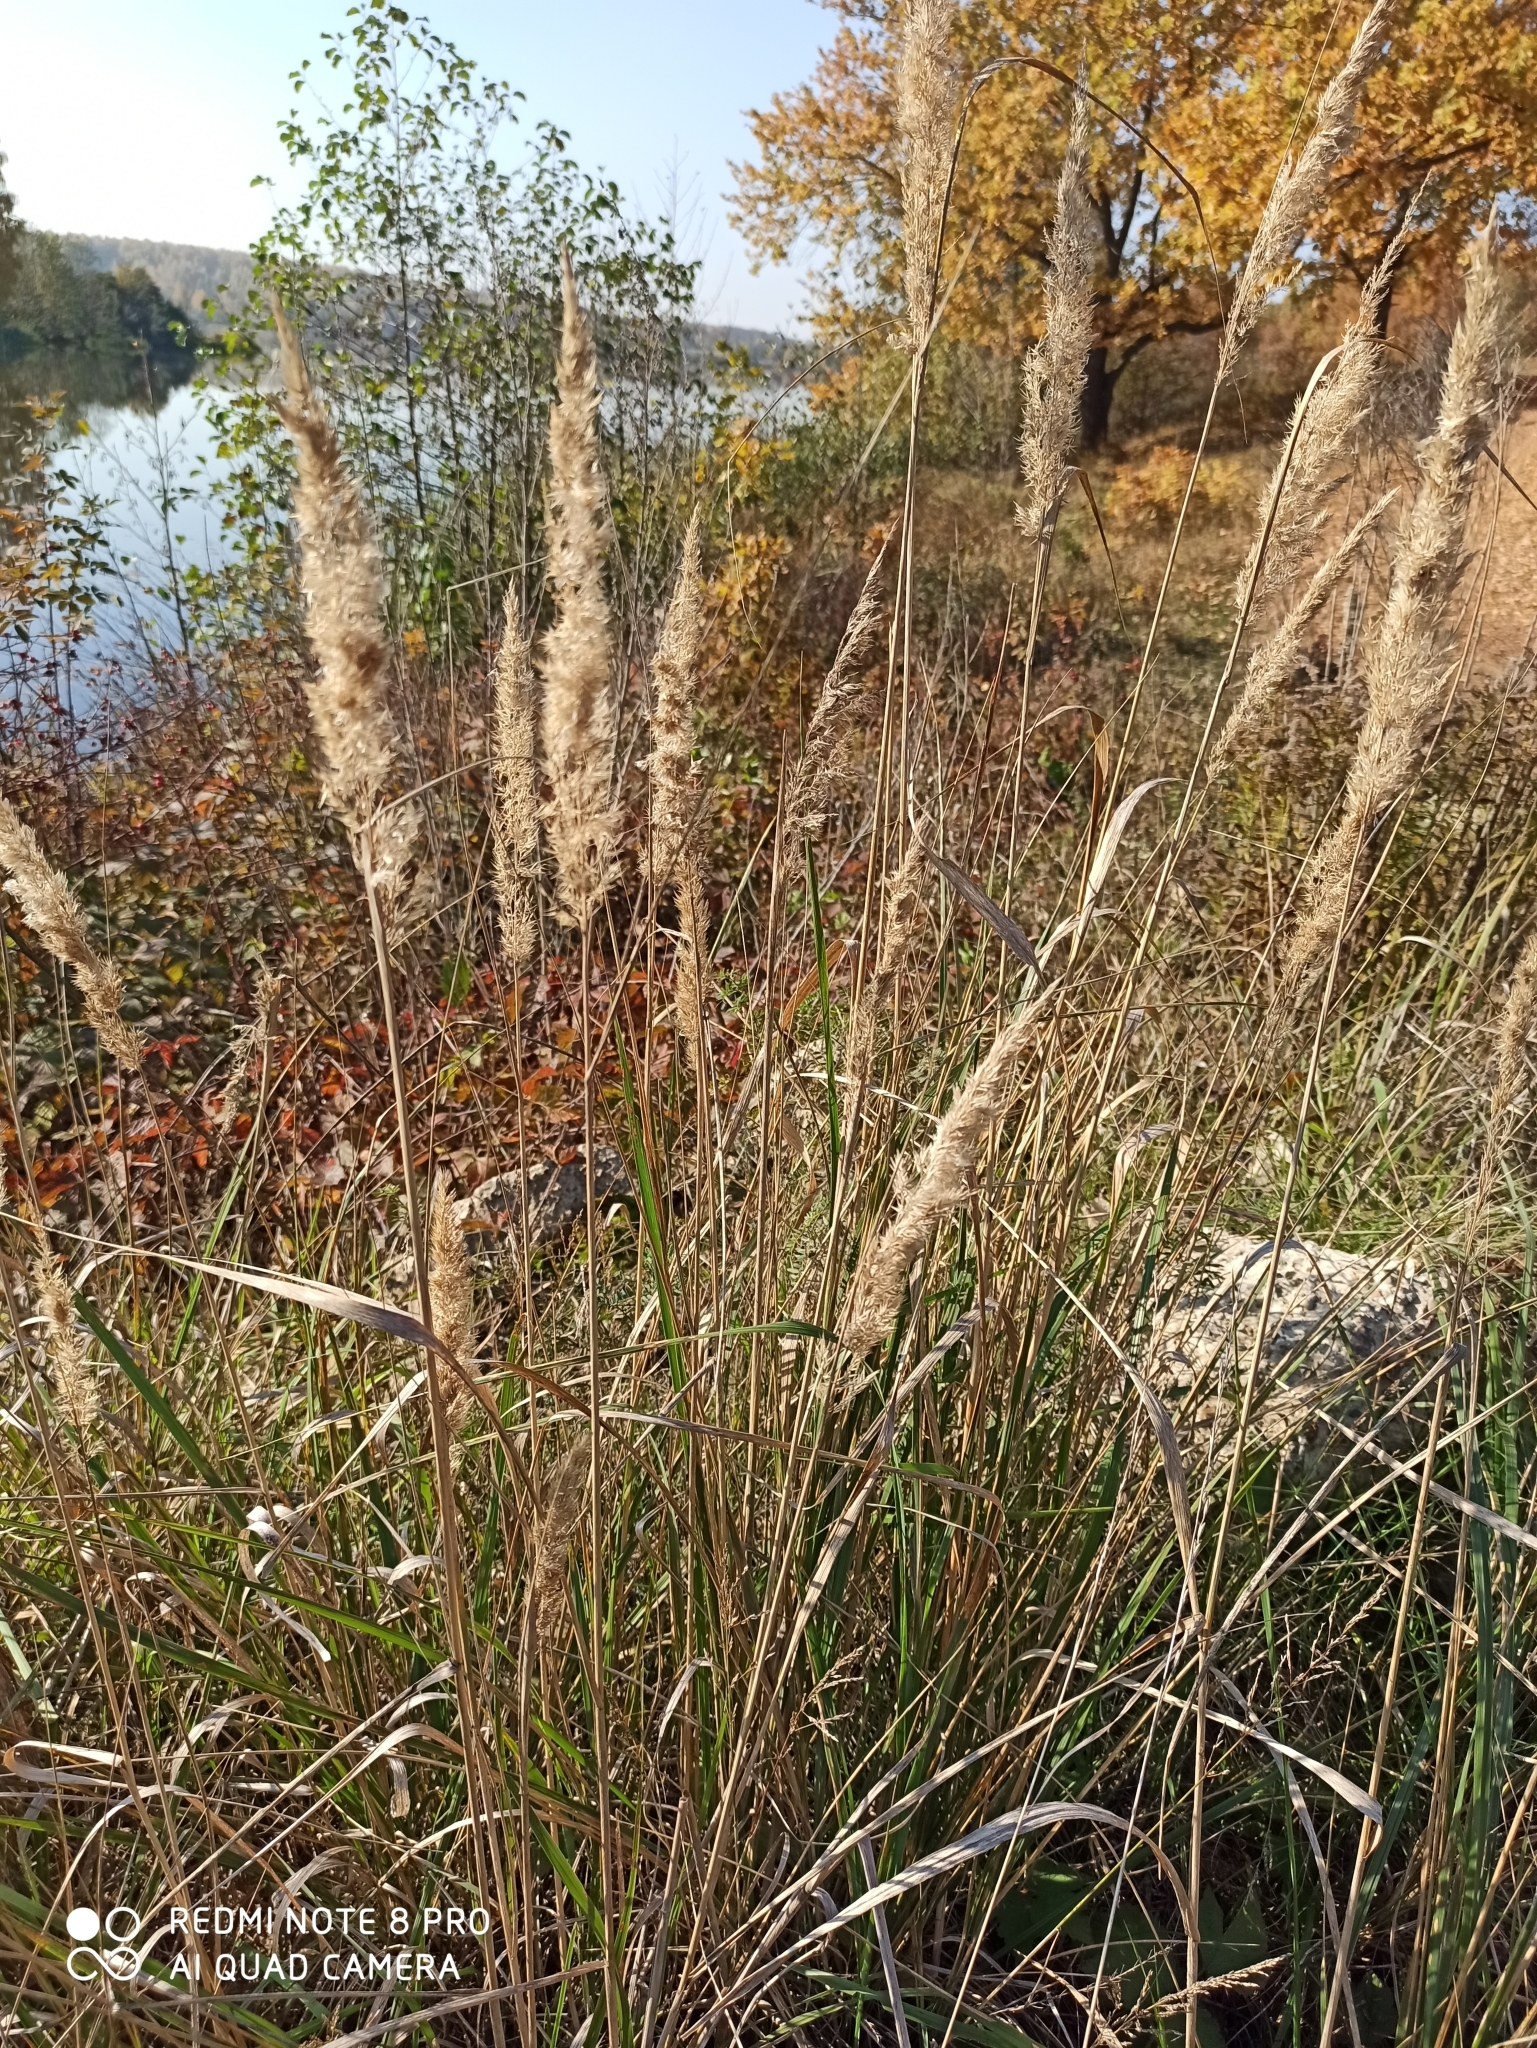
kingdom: Plantae
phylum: Tracheophyta
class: Liliopsida
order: Poales
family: Poaceae
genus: Calamagrostis
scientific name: Calamagrostis epigejos
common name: Wood small-reed
